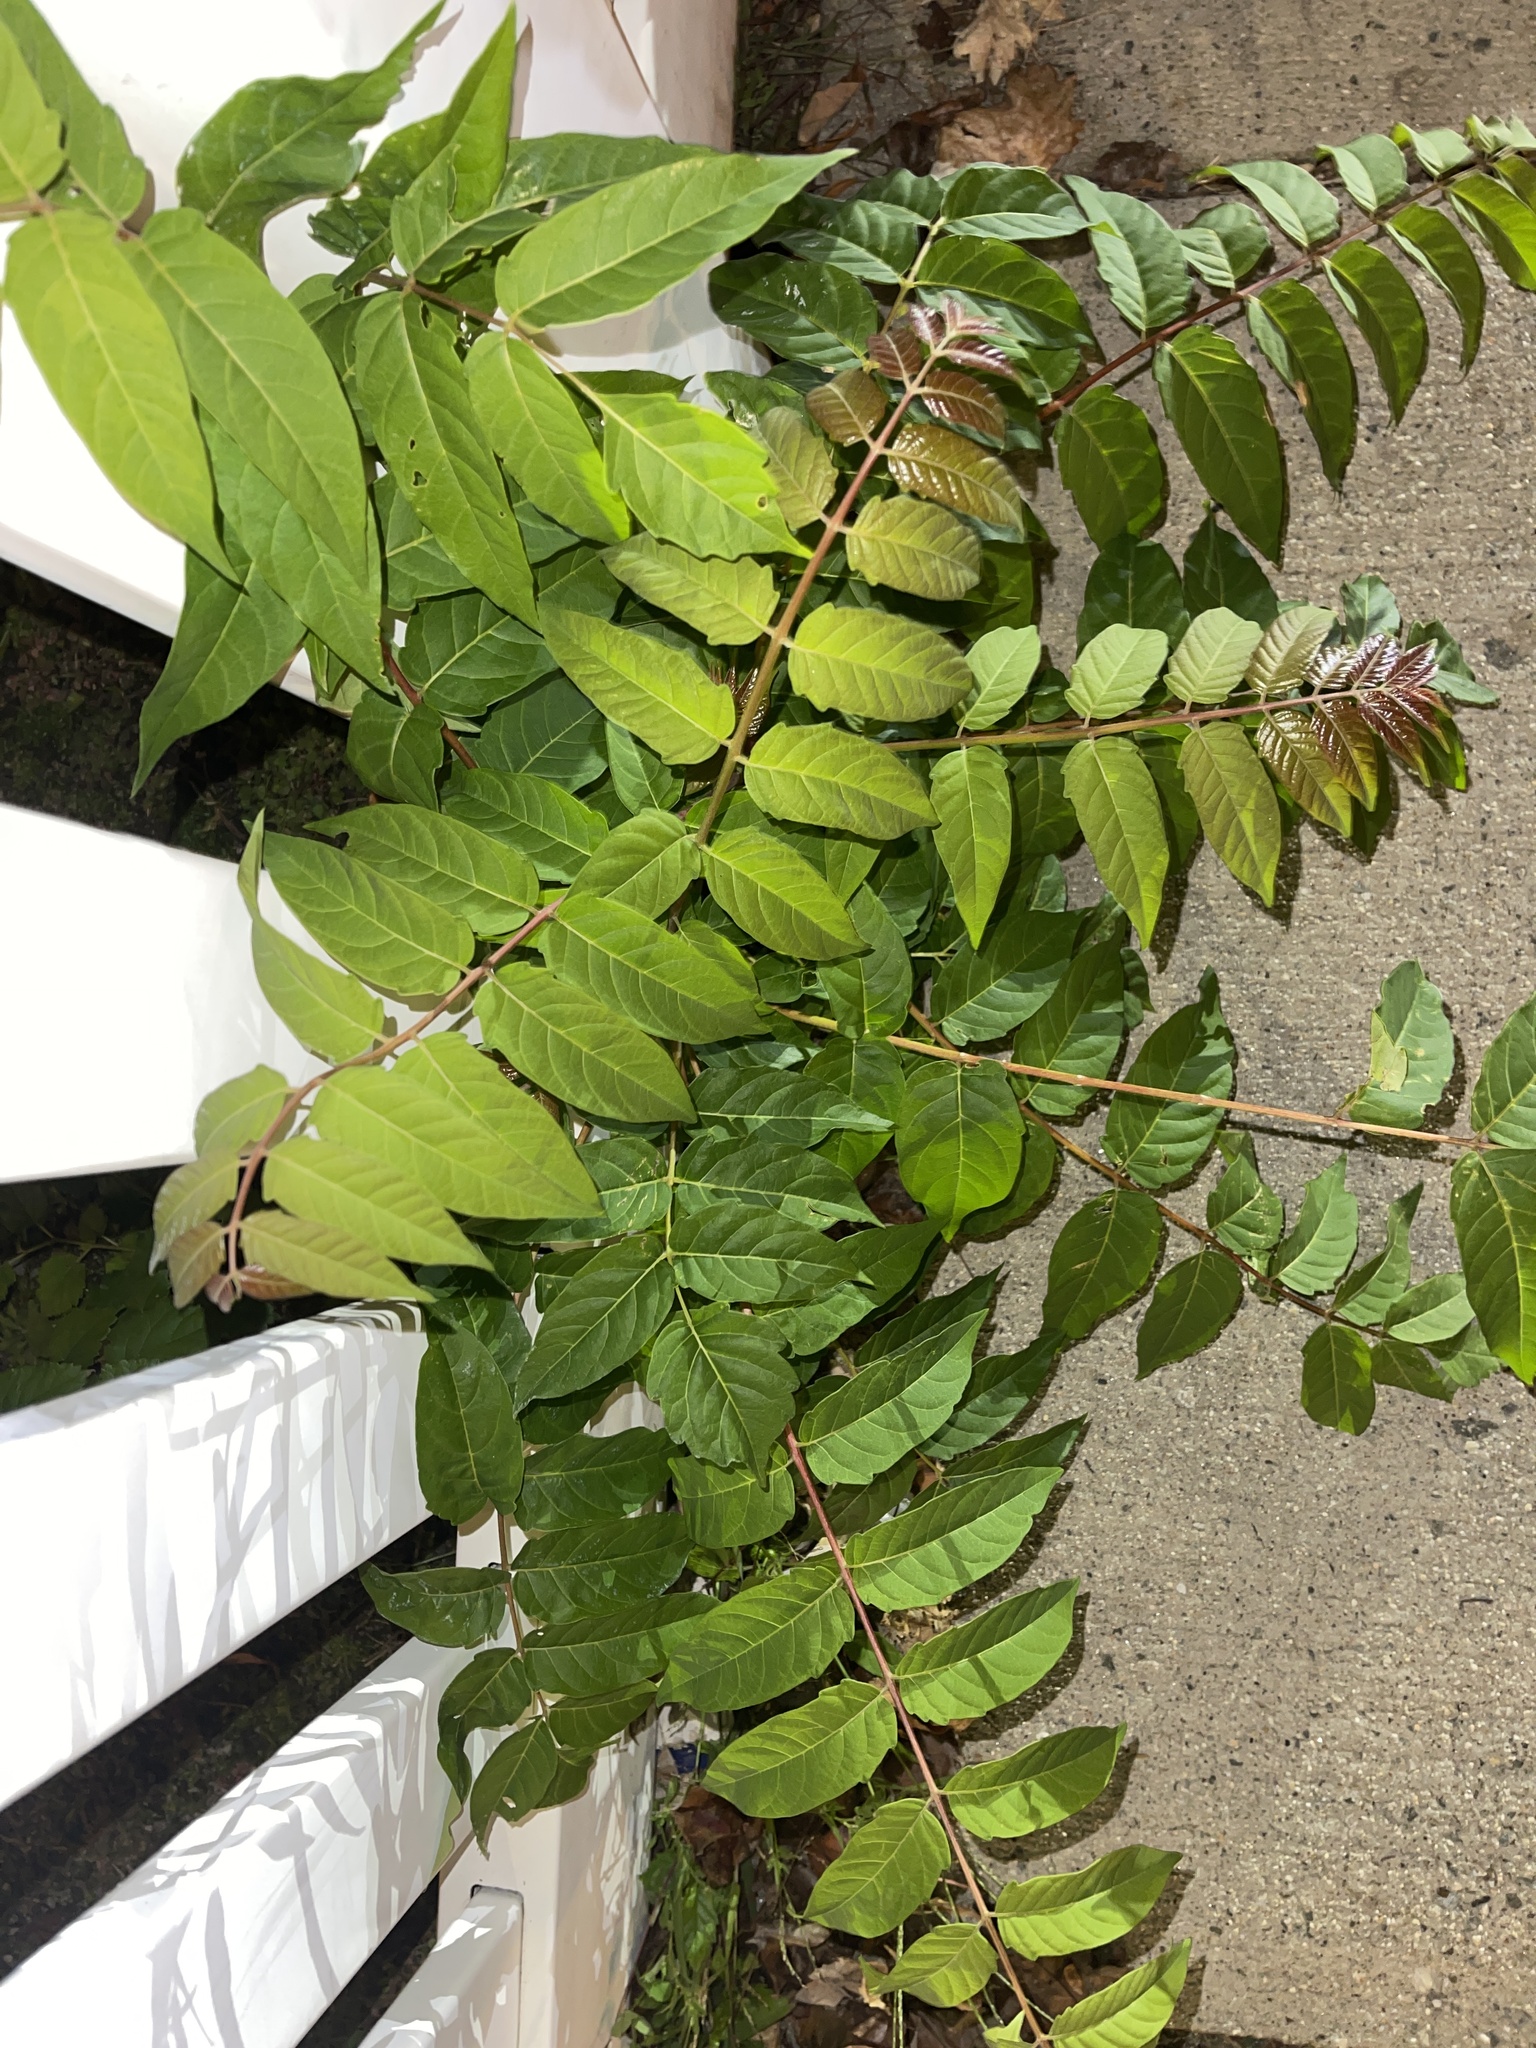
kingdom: Plantae
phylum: Tracheophyta
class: Magnoliopsida
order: Sapindales
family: Simaroubaceae
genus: Ailanthus
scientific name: Ailanthus altissima
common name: Tree-of-heaven
